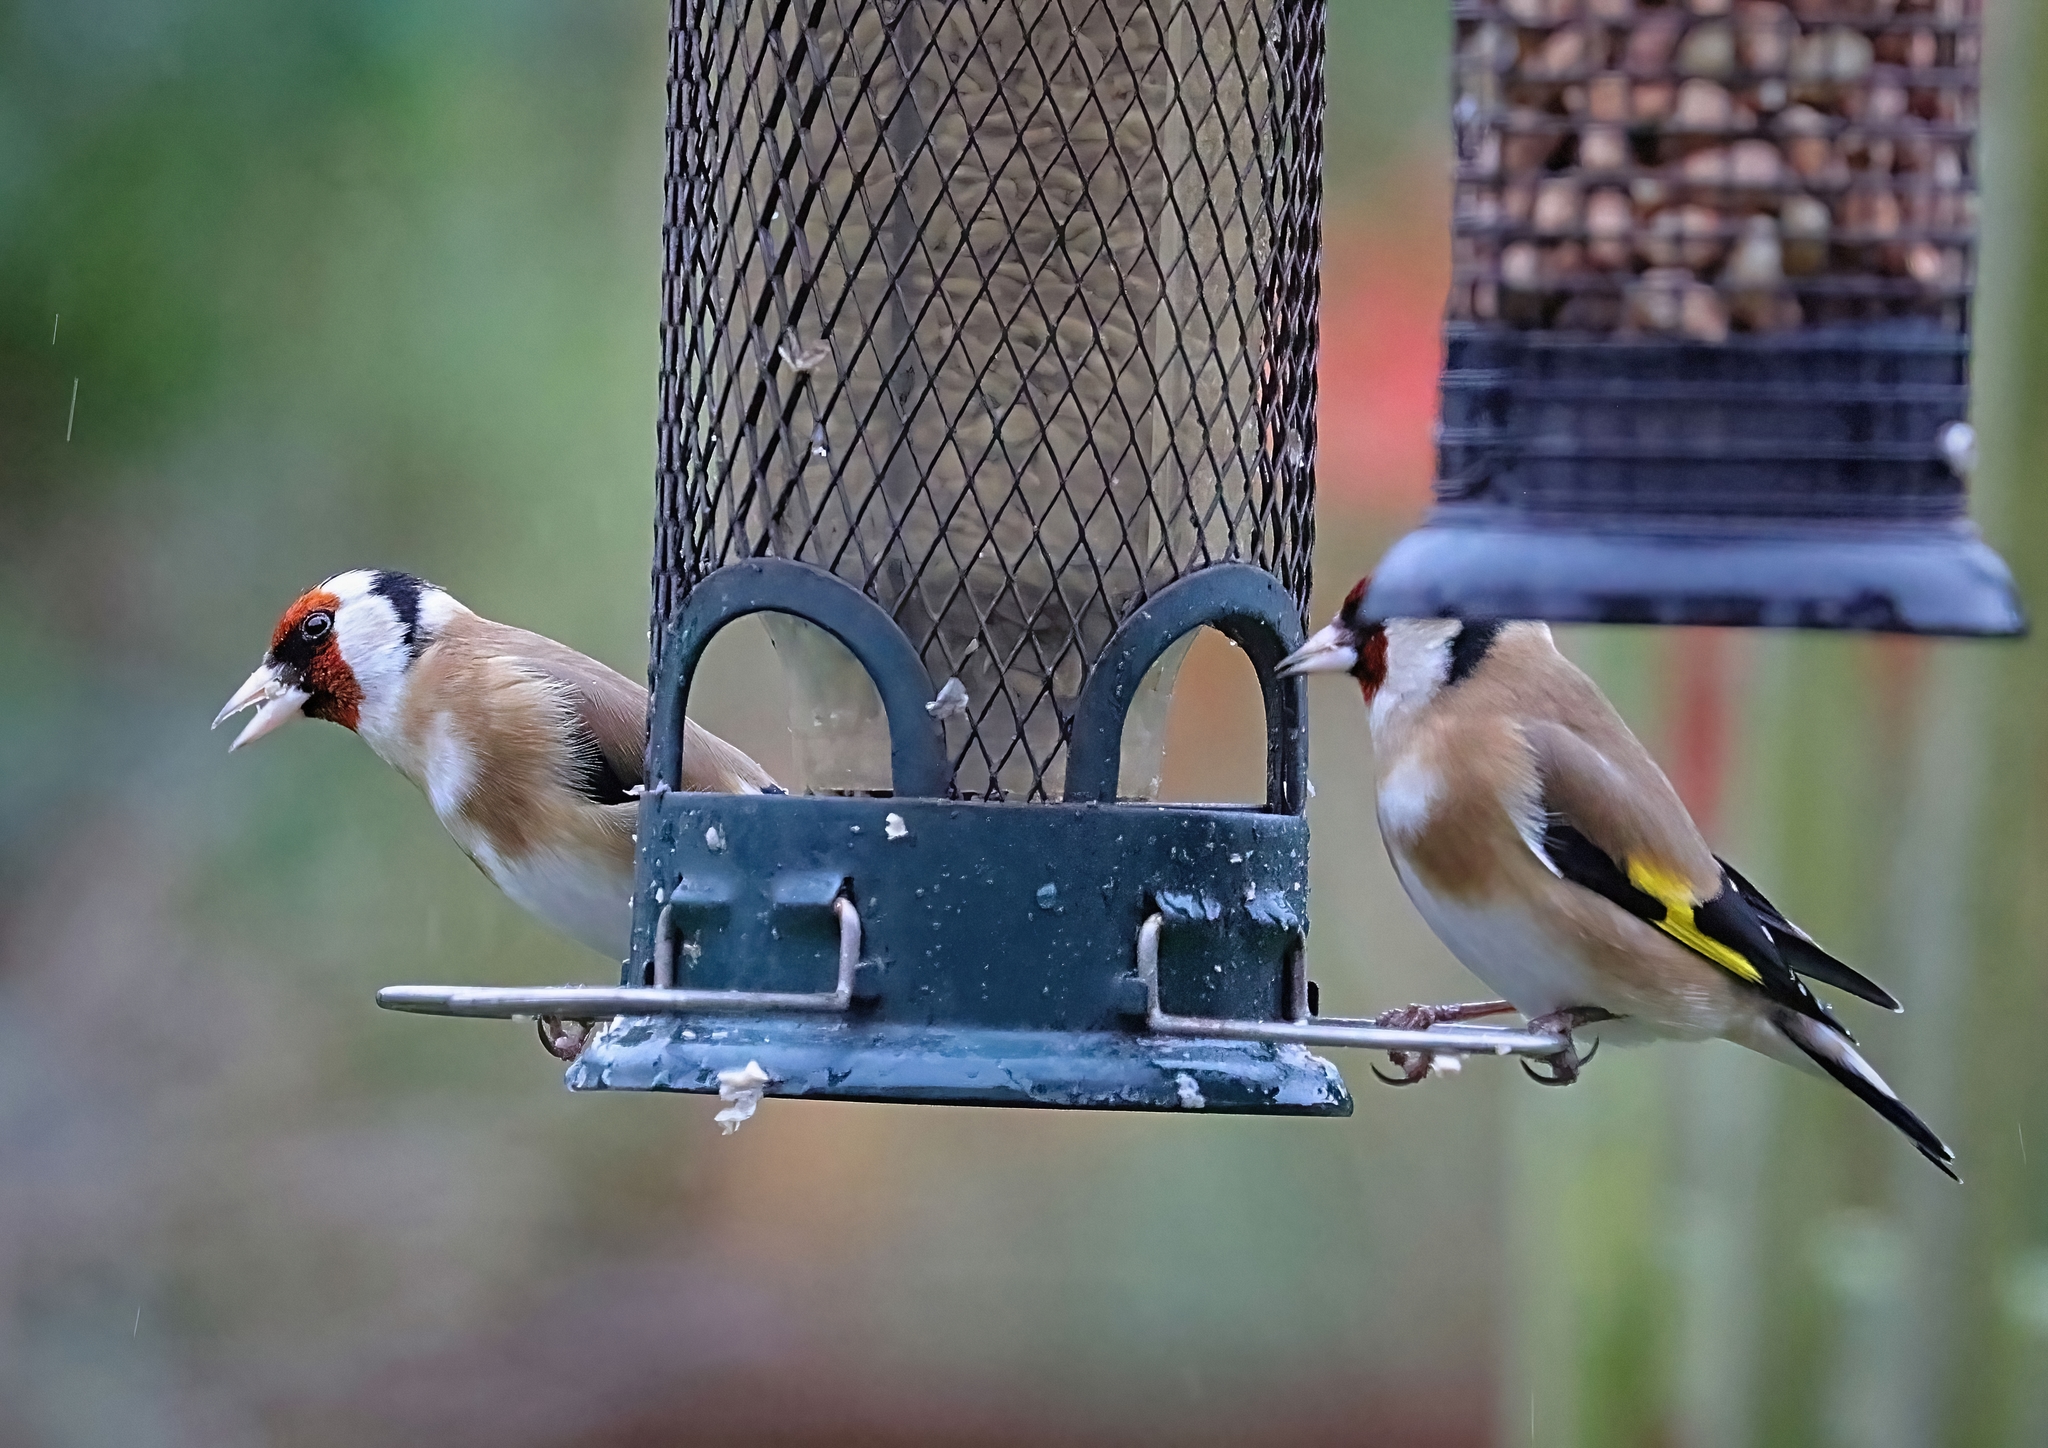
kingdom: Animalia
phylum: Chordata
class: Aves
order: Passeriformes
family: Fringillidae
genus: Carduelis
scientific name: Carduelis carduelis
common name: European goldfinch
